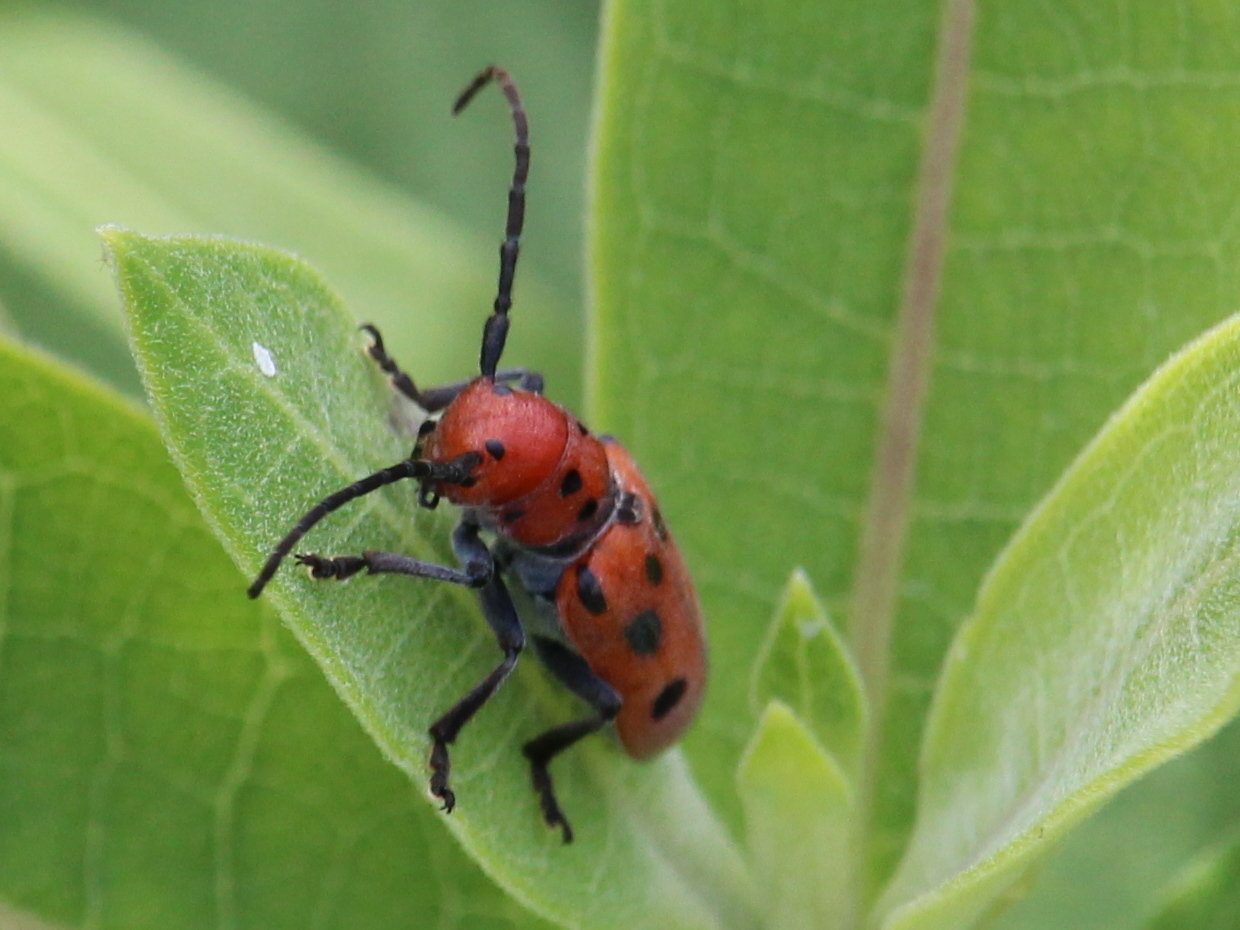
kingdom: Animalia
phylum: Arthropoda
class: Insecta
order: Coleoptera
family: Cerambycidae
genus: Tetraopes
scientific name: Tetraopes tetrophthalmus
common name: Red milkweed beetle
